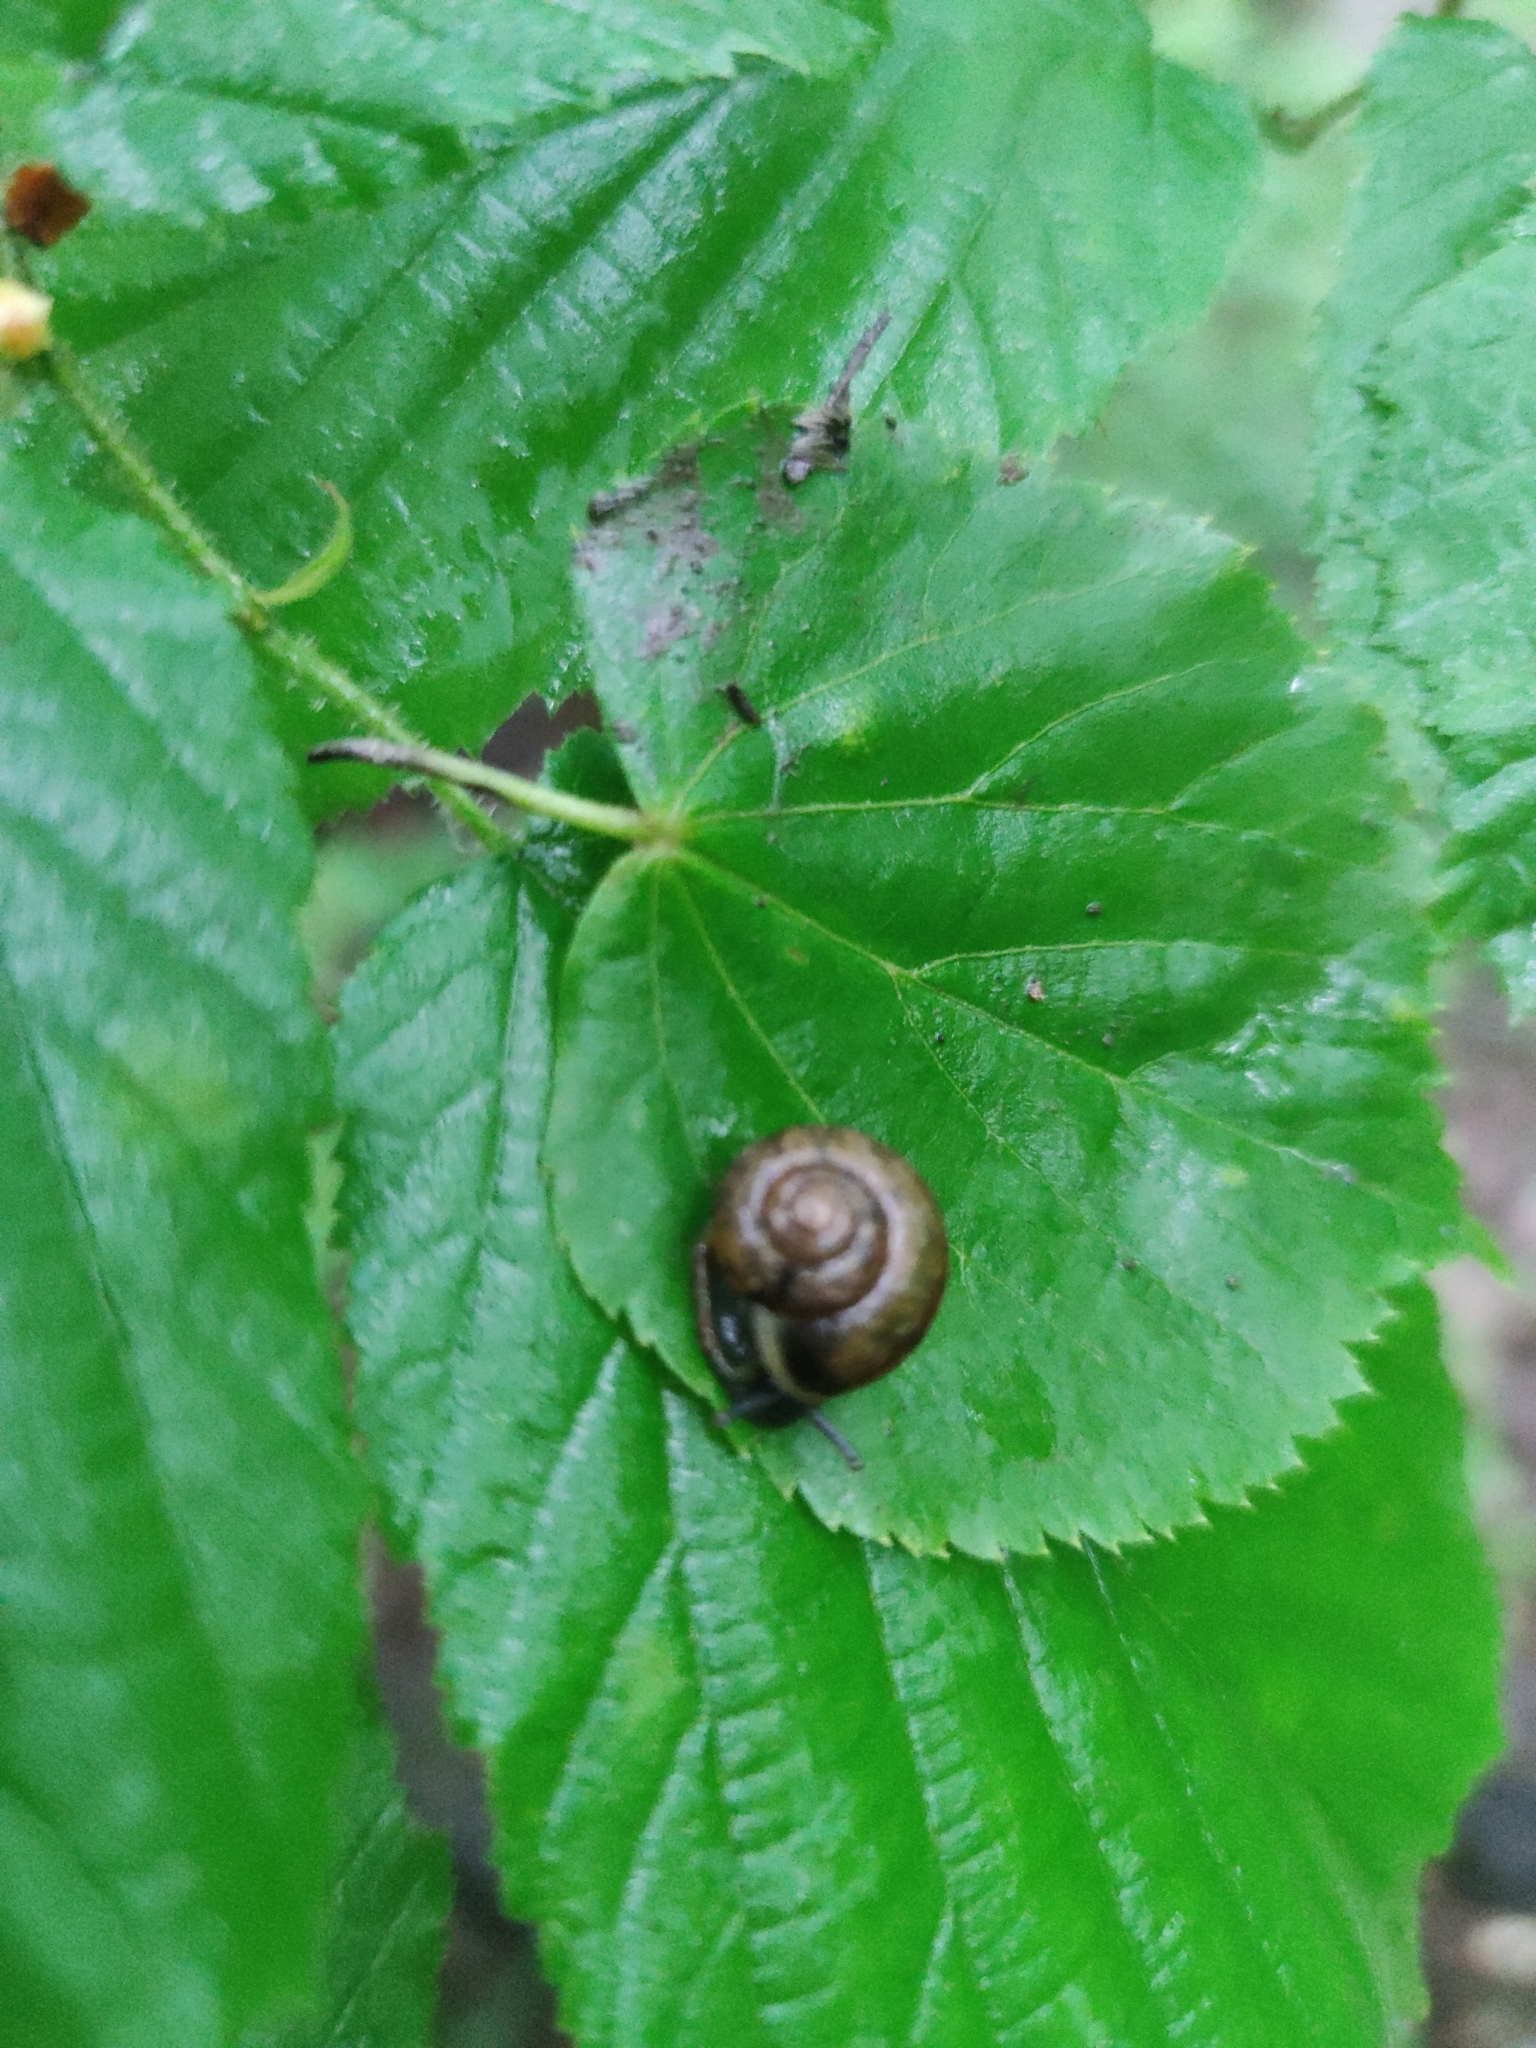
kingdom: Animalia
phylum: Mollusca
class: Gastropoda
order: Stylommatophora
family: Camaenidae
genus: Fruticicola
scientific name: Fruticicola fruticum
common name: Bush snail
